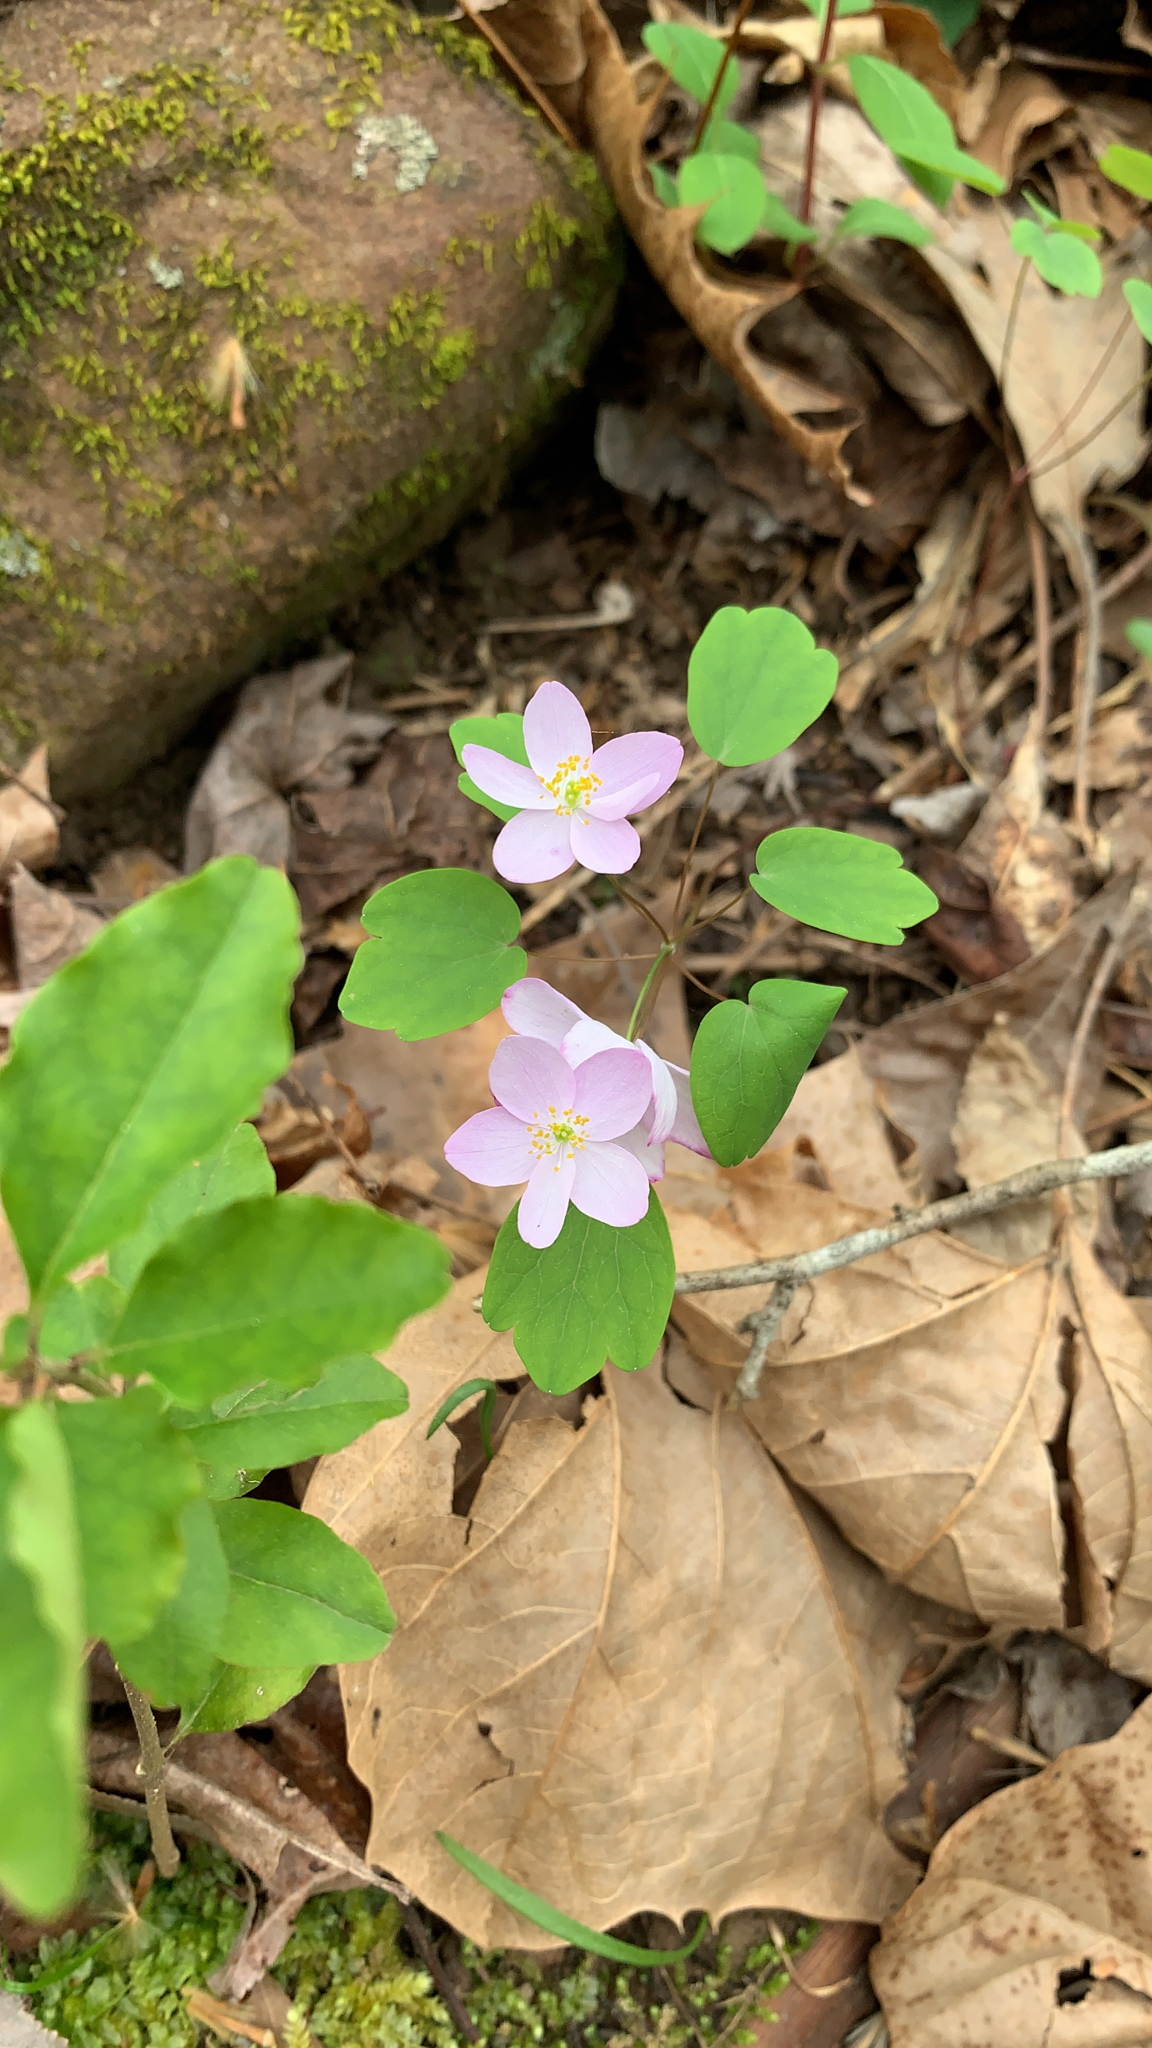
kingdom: Plantae
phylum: Tracheophyta
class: Magnoliopsida
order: Ranunculales
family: Ranunculaceae
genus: Thalictrum
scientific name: Thalictrum thalictroides
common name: Rue-anemone
